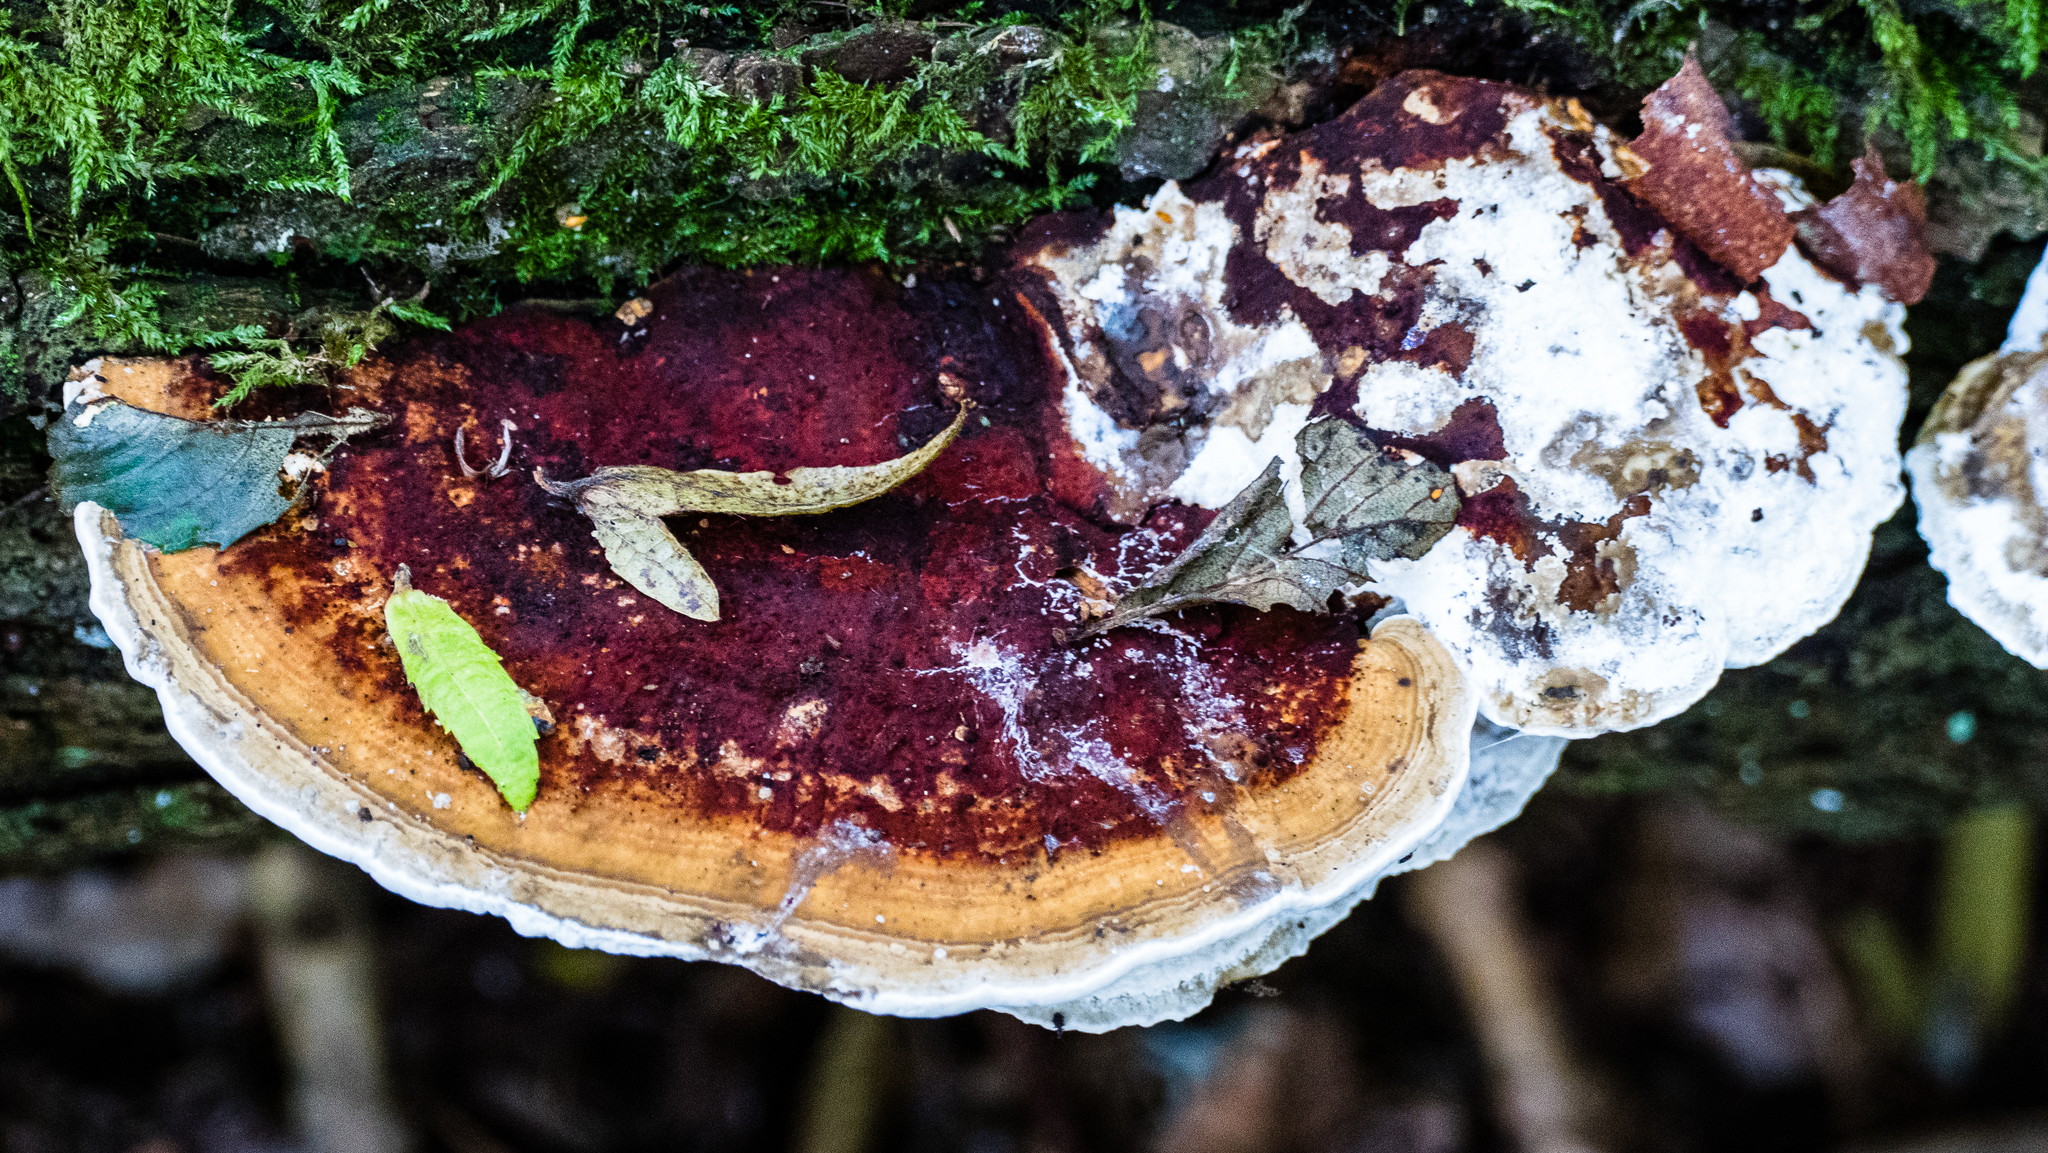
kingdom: Fungi
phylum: Basidiomycota
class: Agaricomycetes
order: Polyporales
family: Polyporaceae
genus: Daedaleopsis
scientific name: Daedaleopsis confragosa
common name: Blushing bracket
